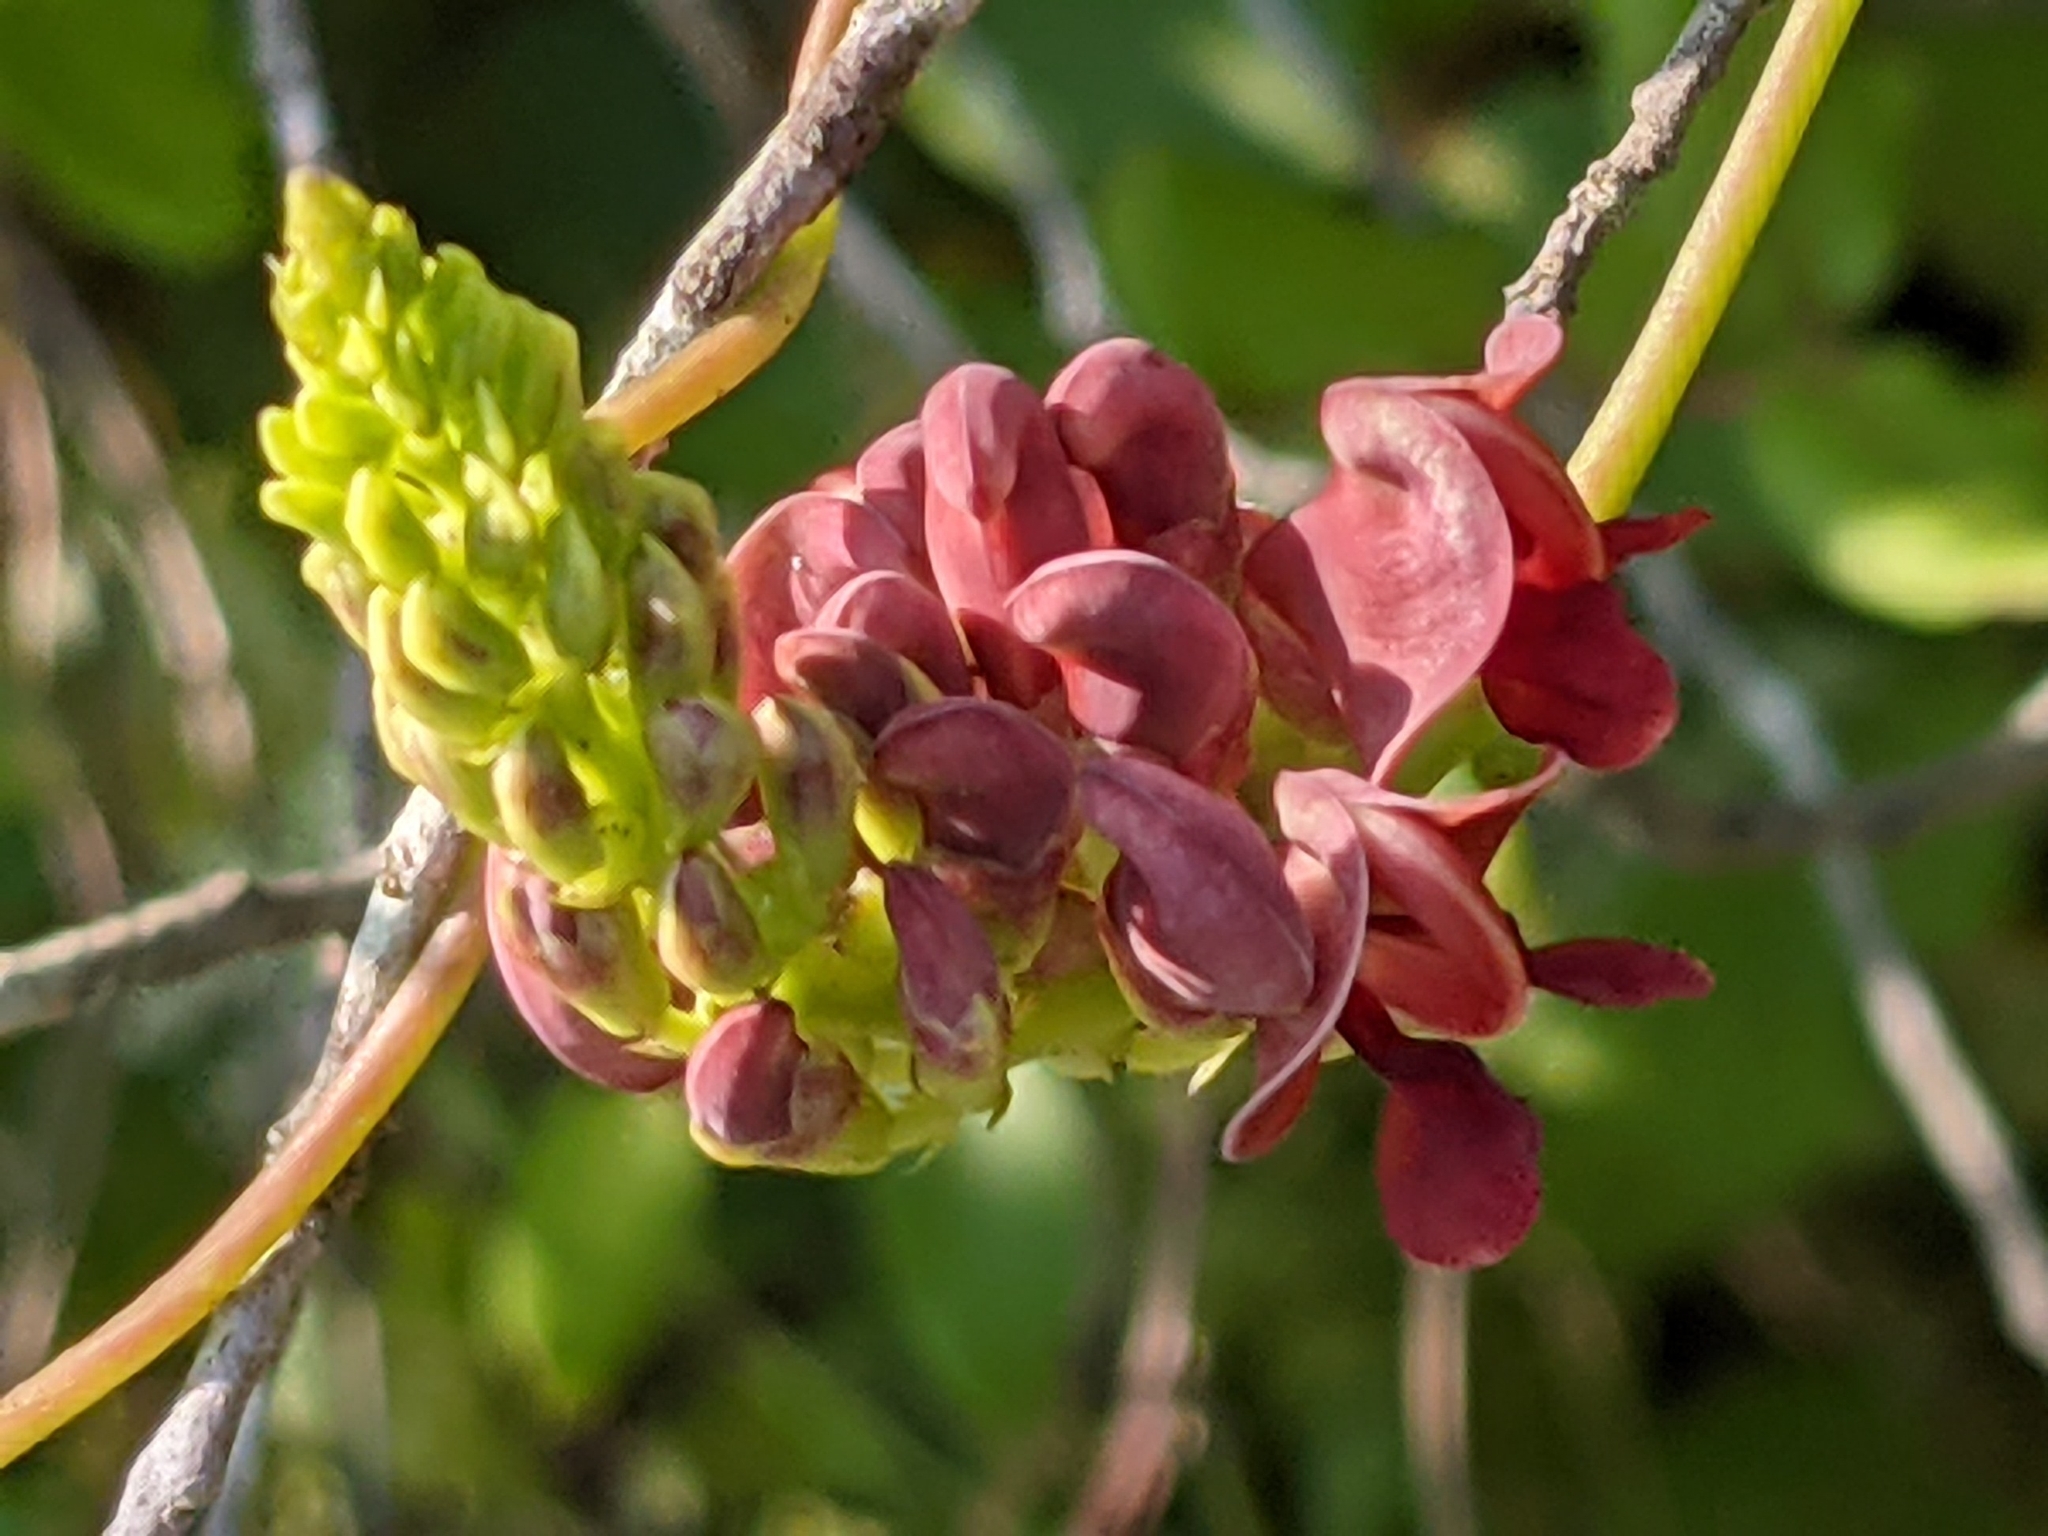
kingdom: Plantae
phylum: Tracheophyta
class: Magnoliopsida
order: Fabales
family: Fabaceae
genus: Apios
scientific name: Apios americana
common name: American potato-bean
